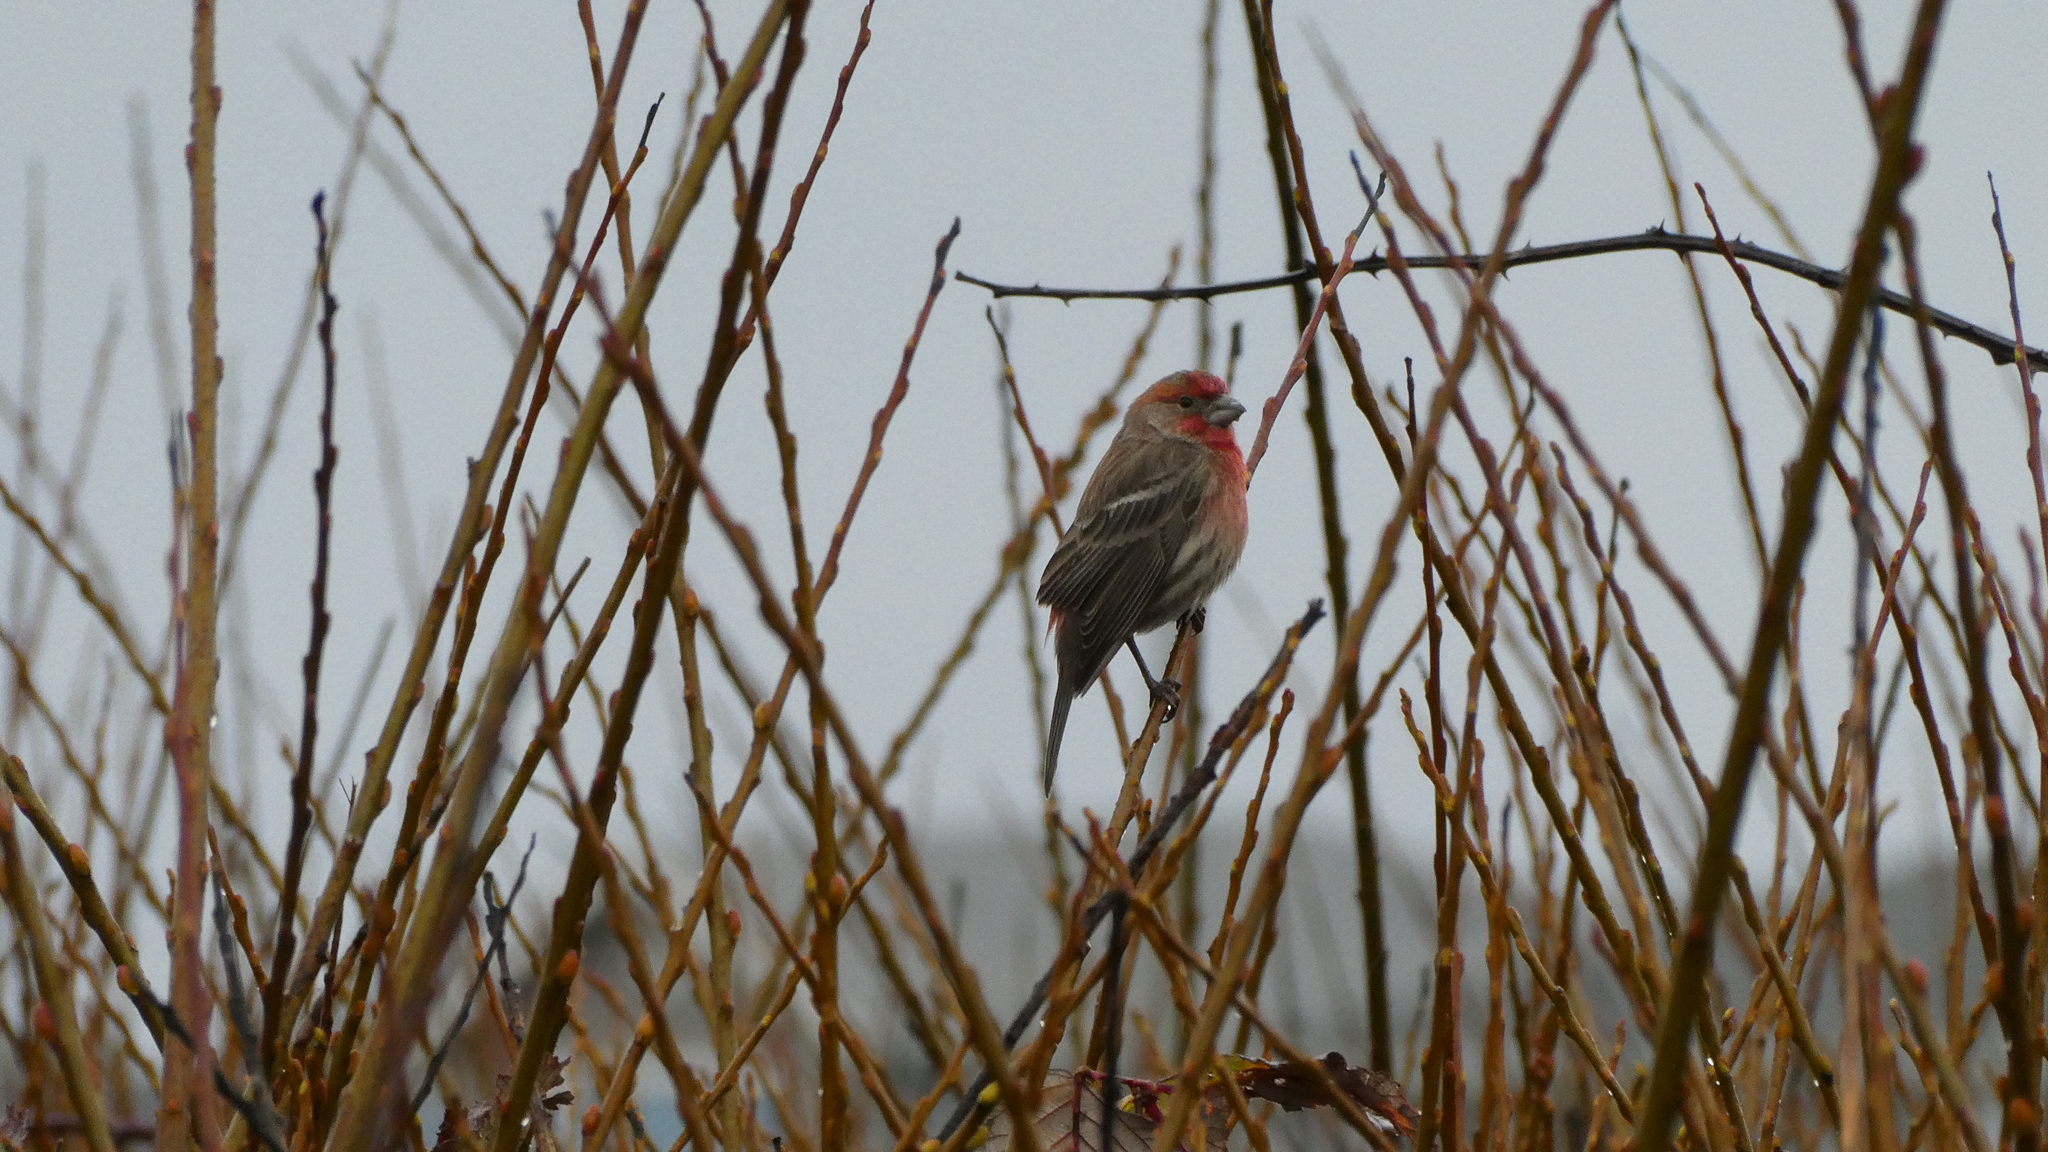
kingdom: Animalia
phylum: Chordata
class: Aves
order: Passeriformes
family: Fringillidae
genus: Haemorhous
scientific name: Haemorhous mexicanus
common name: House finch
